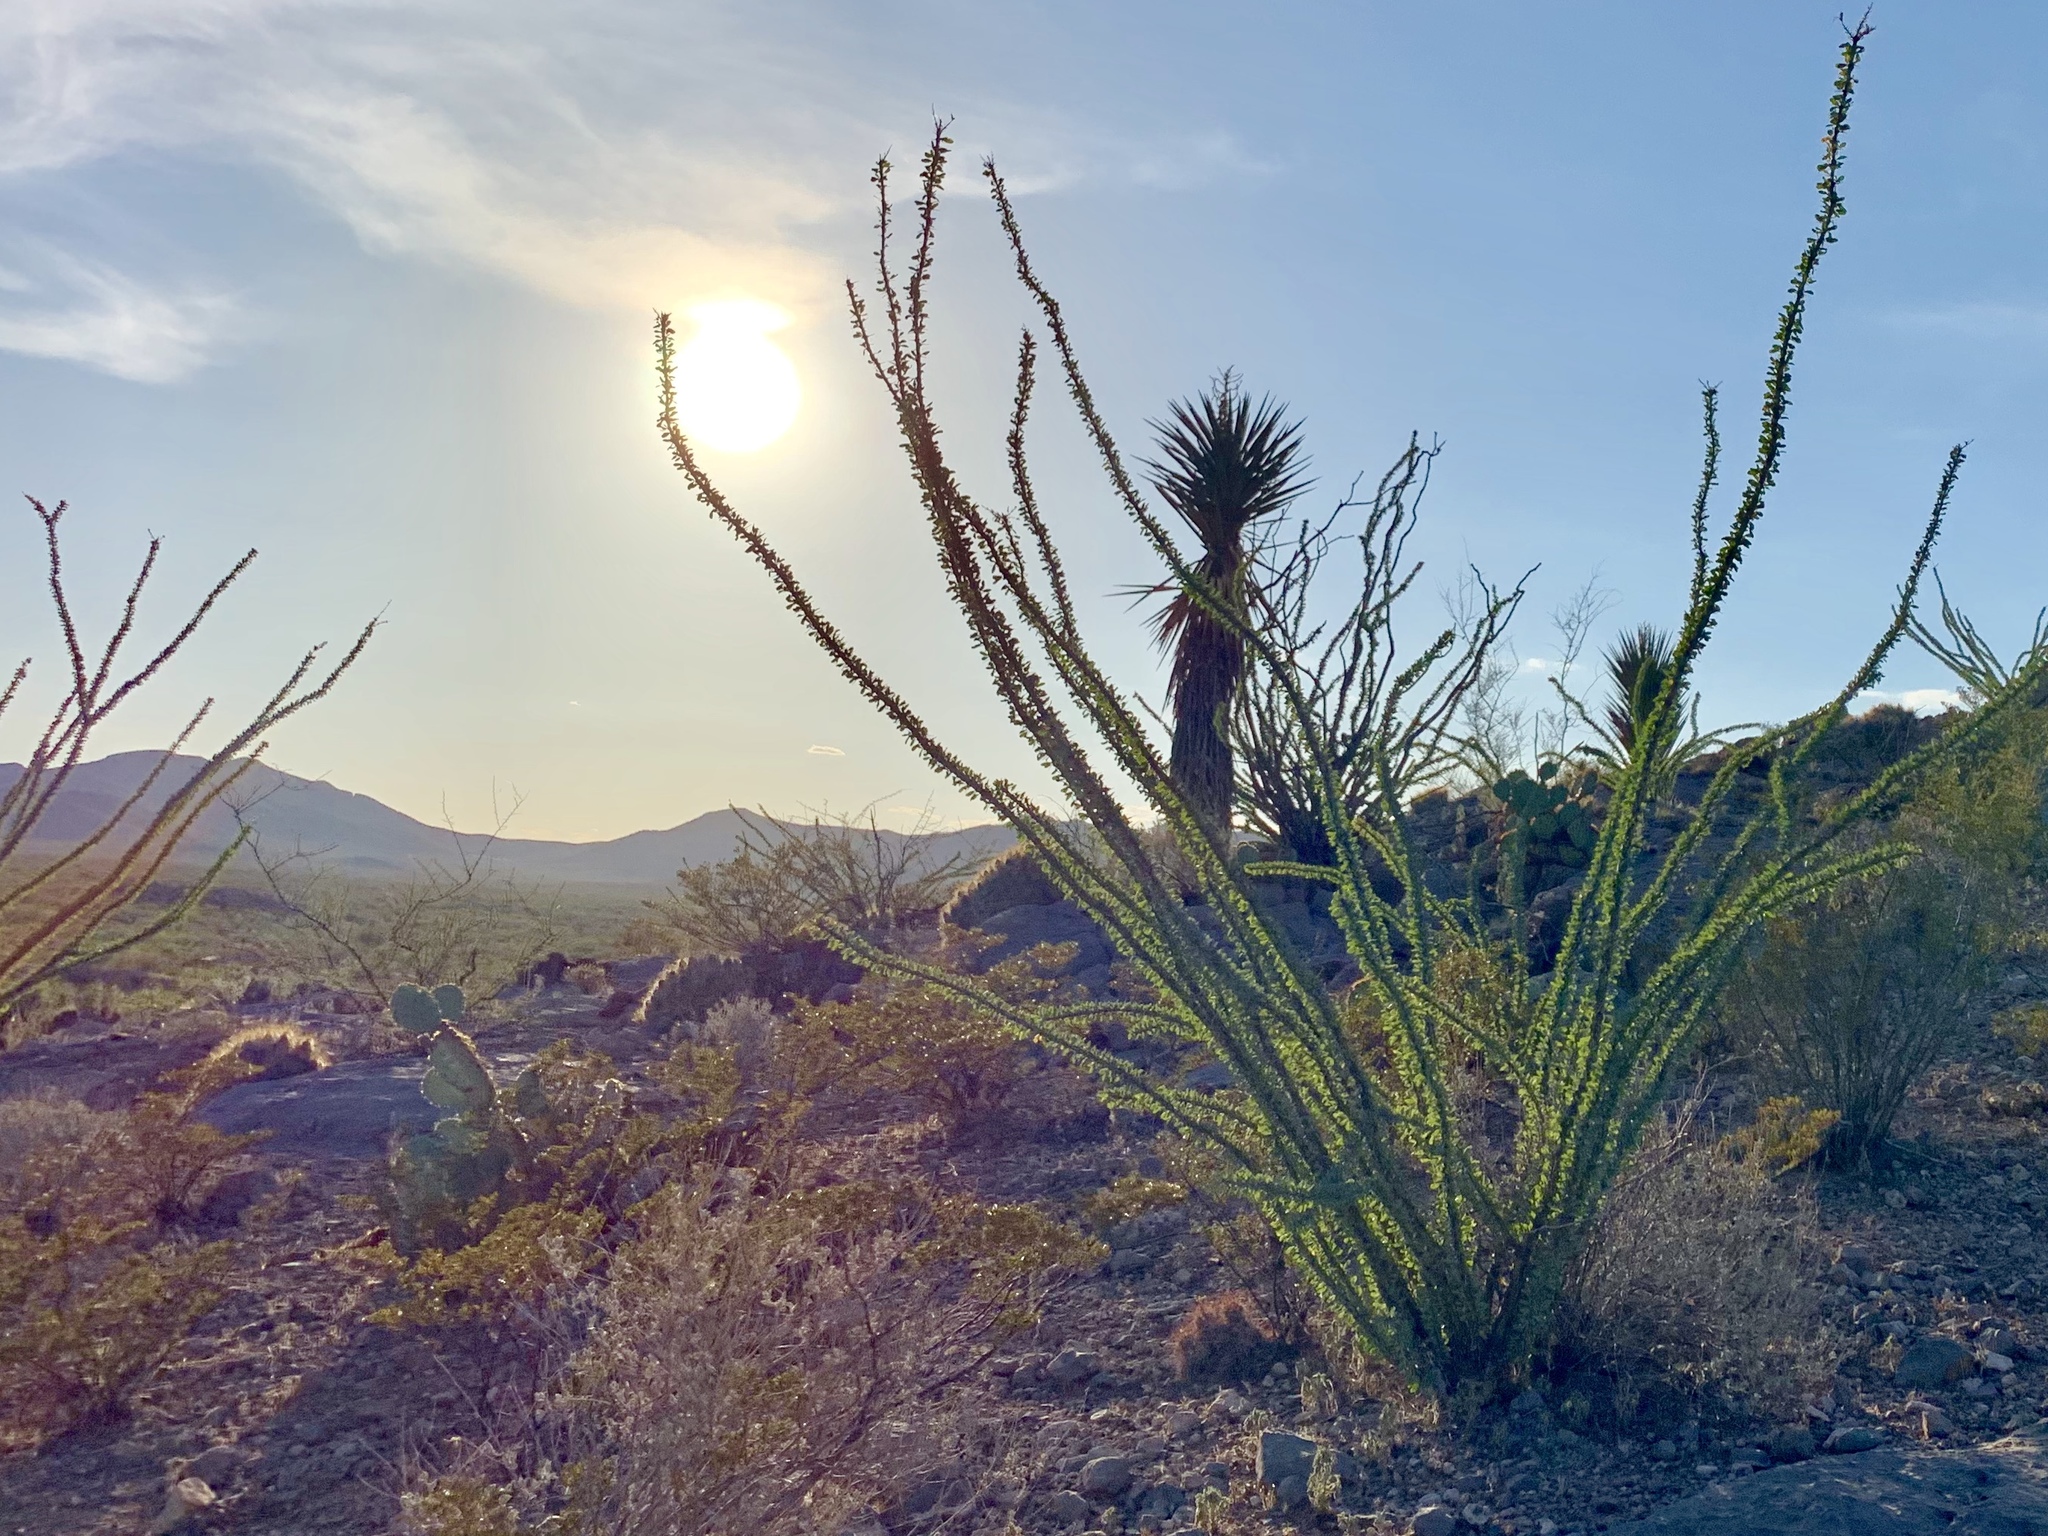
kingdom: Plantae
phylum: Tracheophyta
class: Magnoliopsida
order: Ericales
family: Fouquieriaceae
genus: Fouquieria
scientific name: Fouquieria splendens
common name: Vine-cactus
